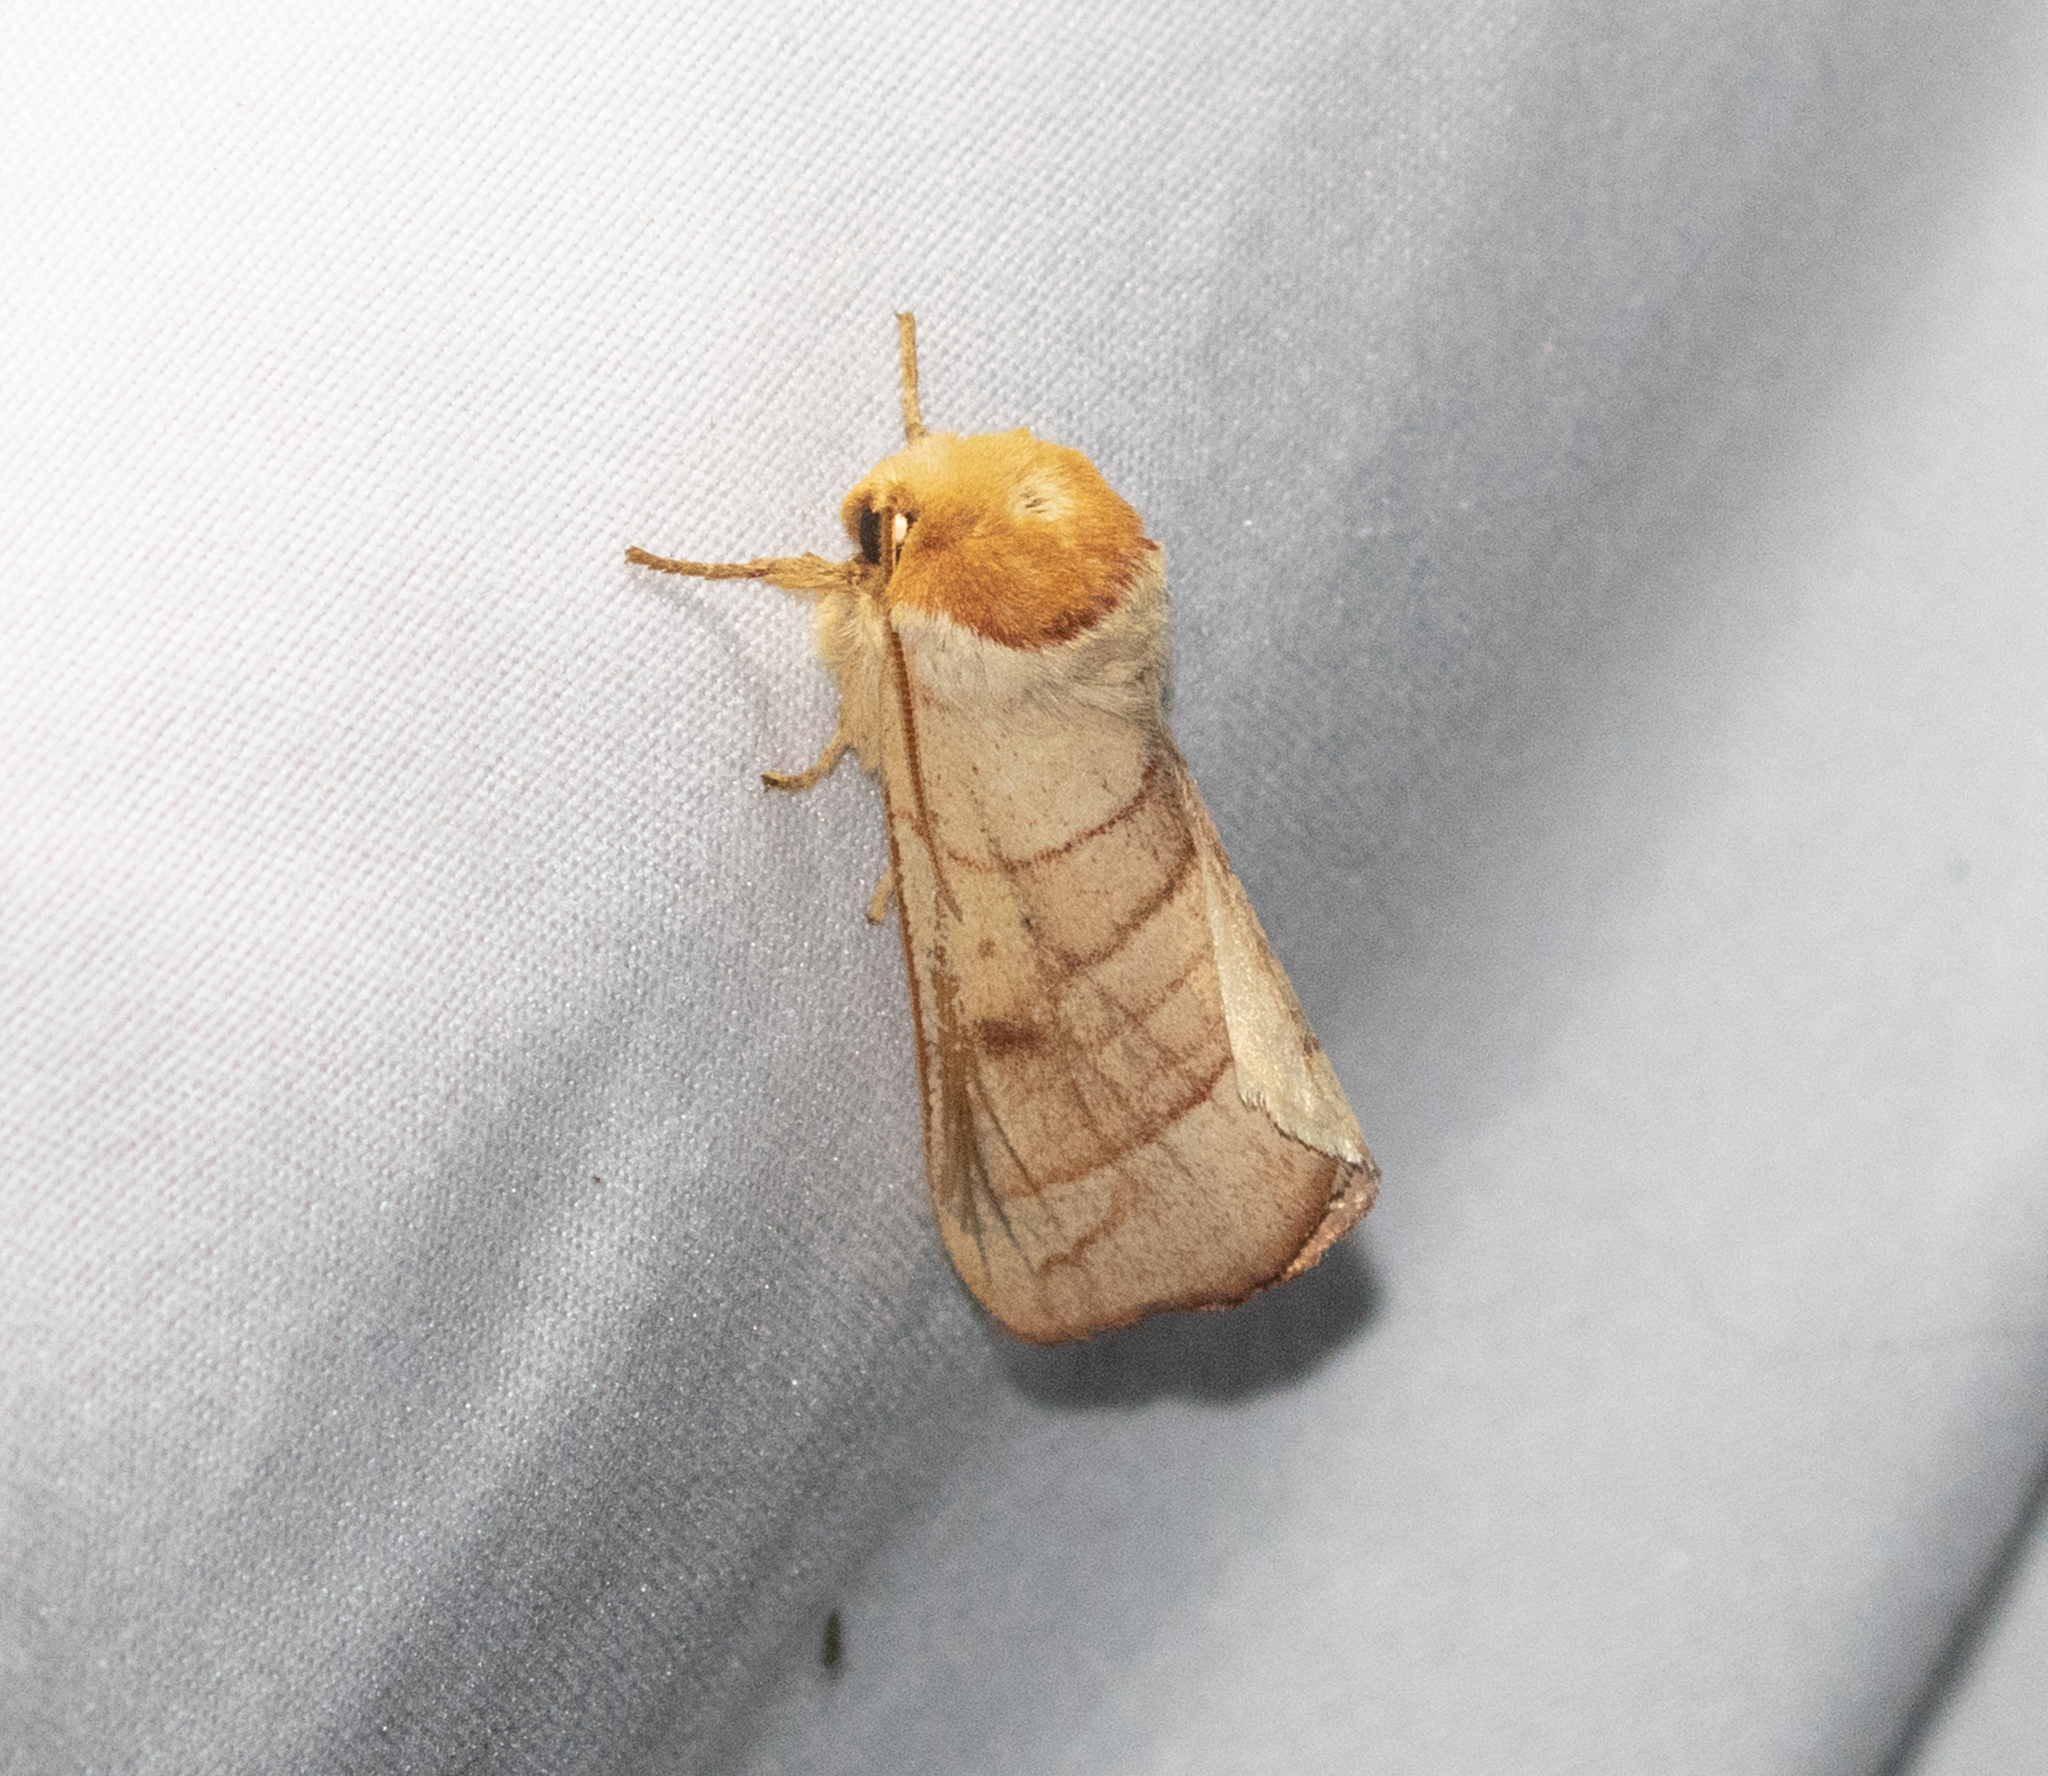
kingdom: Animalia
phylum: Arthropoda
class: Insecta
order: Lepidoptera
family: Notodontidae
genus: Datana
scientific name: Datana perspicua
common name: Spotted datana
